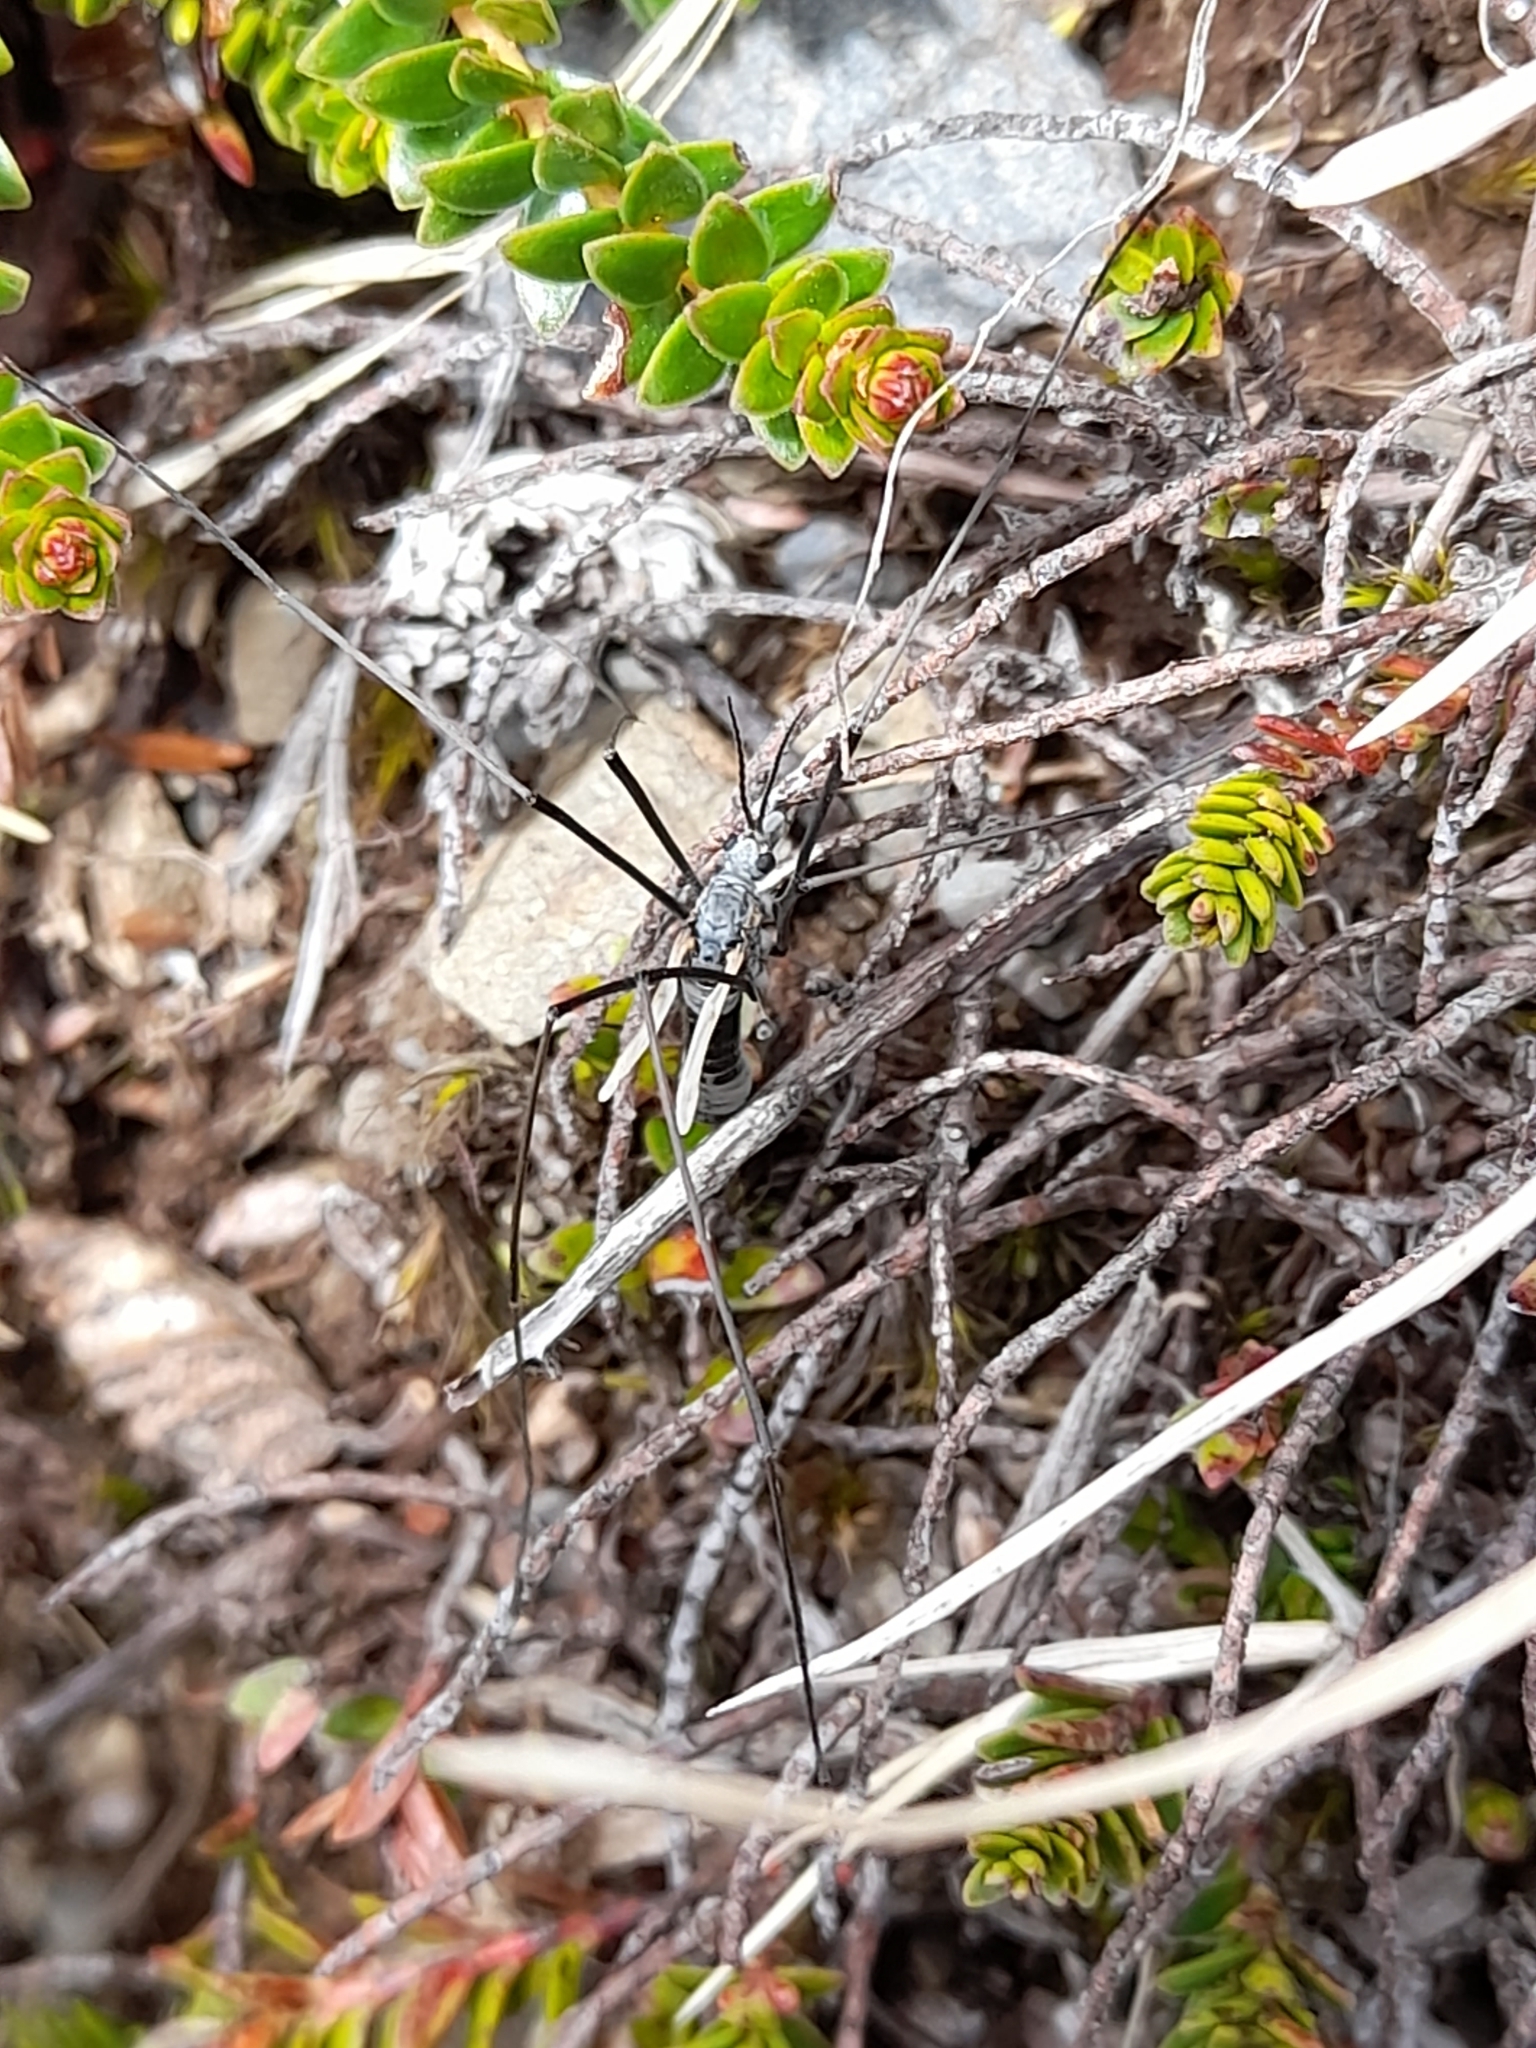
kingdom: Animalia
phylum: Arthropoda
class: Insecta
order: Diptera
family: Tipulidae
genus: Tipula
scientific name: Tipula kuscheli
